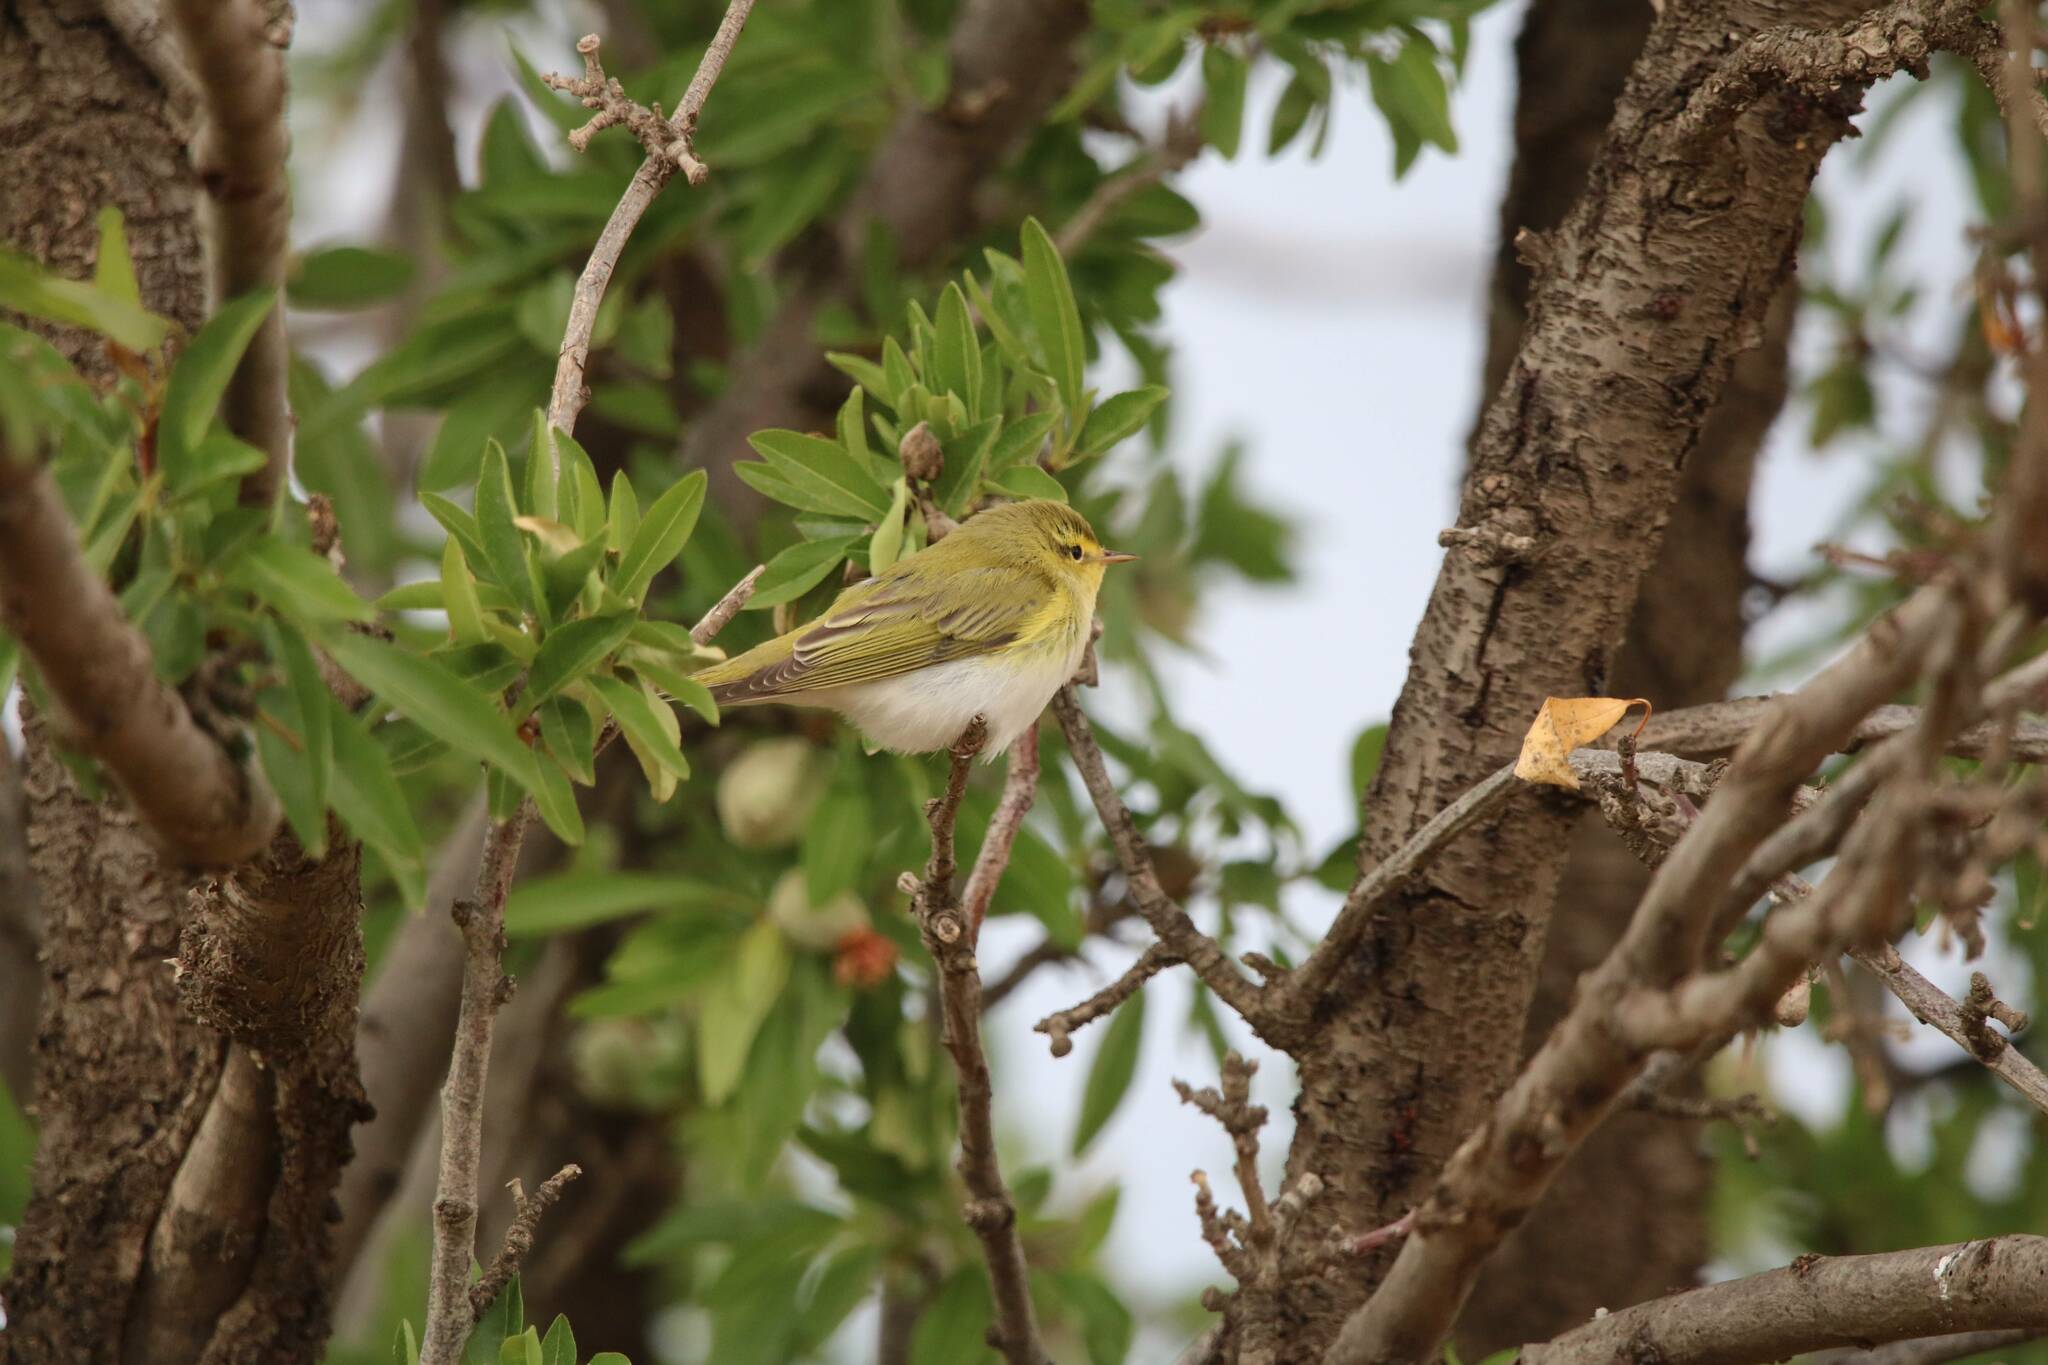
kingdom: Animalia
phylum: Chordata
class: Aves
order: Passeriformes
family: Phylloscopidae
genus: Phylloscopus
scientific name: Phylloscopus sibillatrix
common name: Wood warbler
